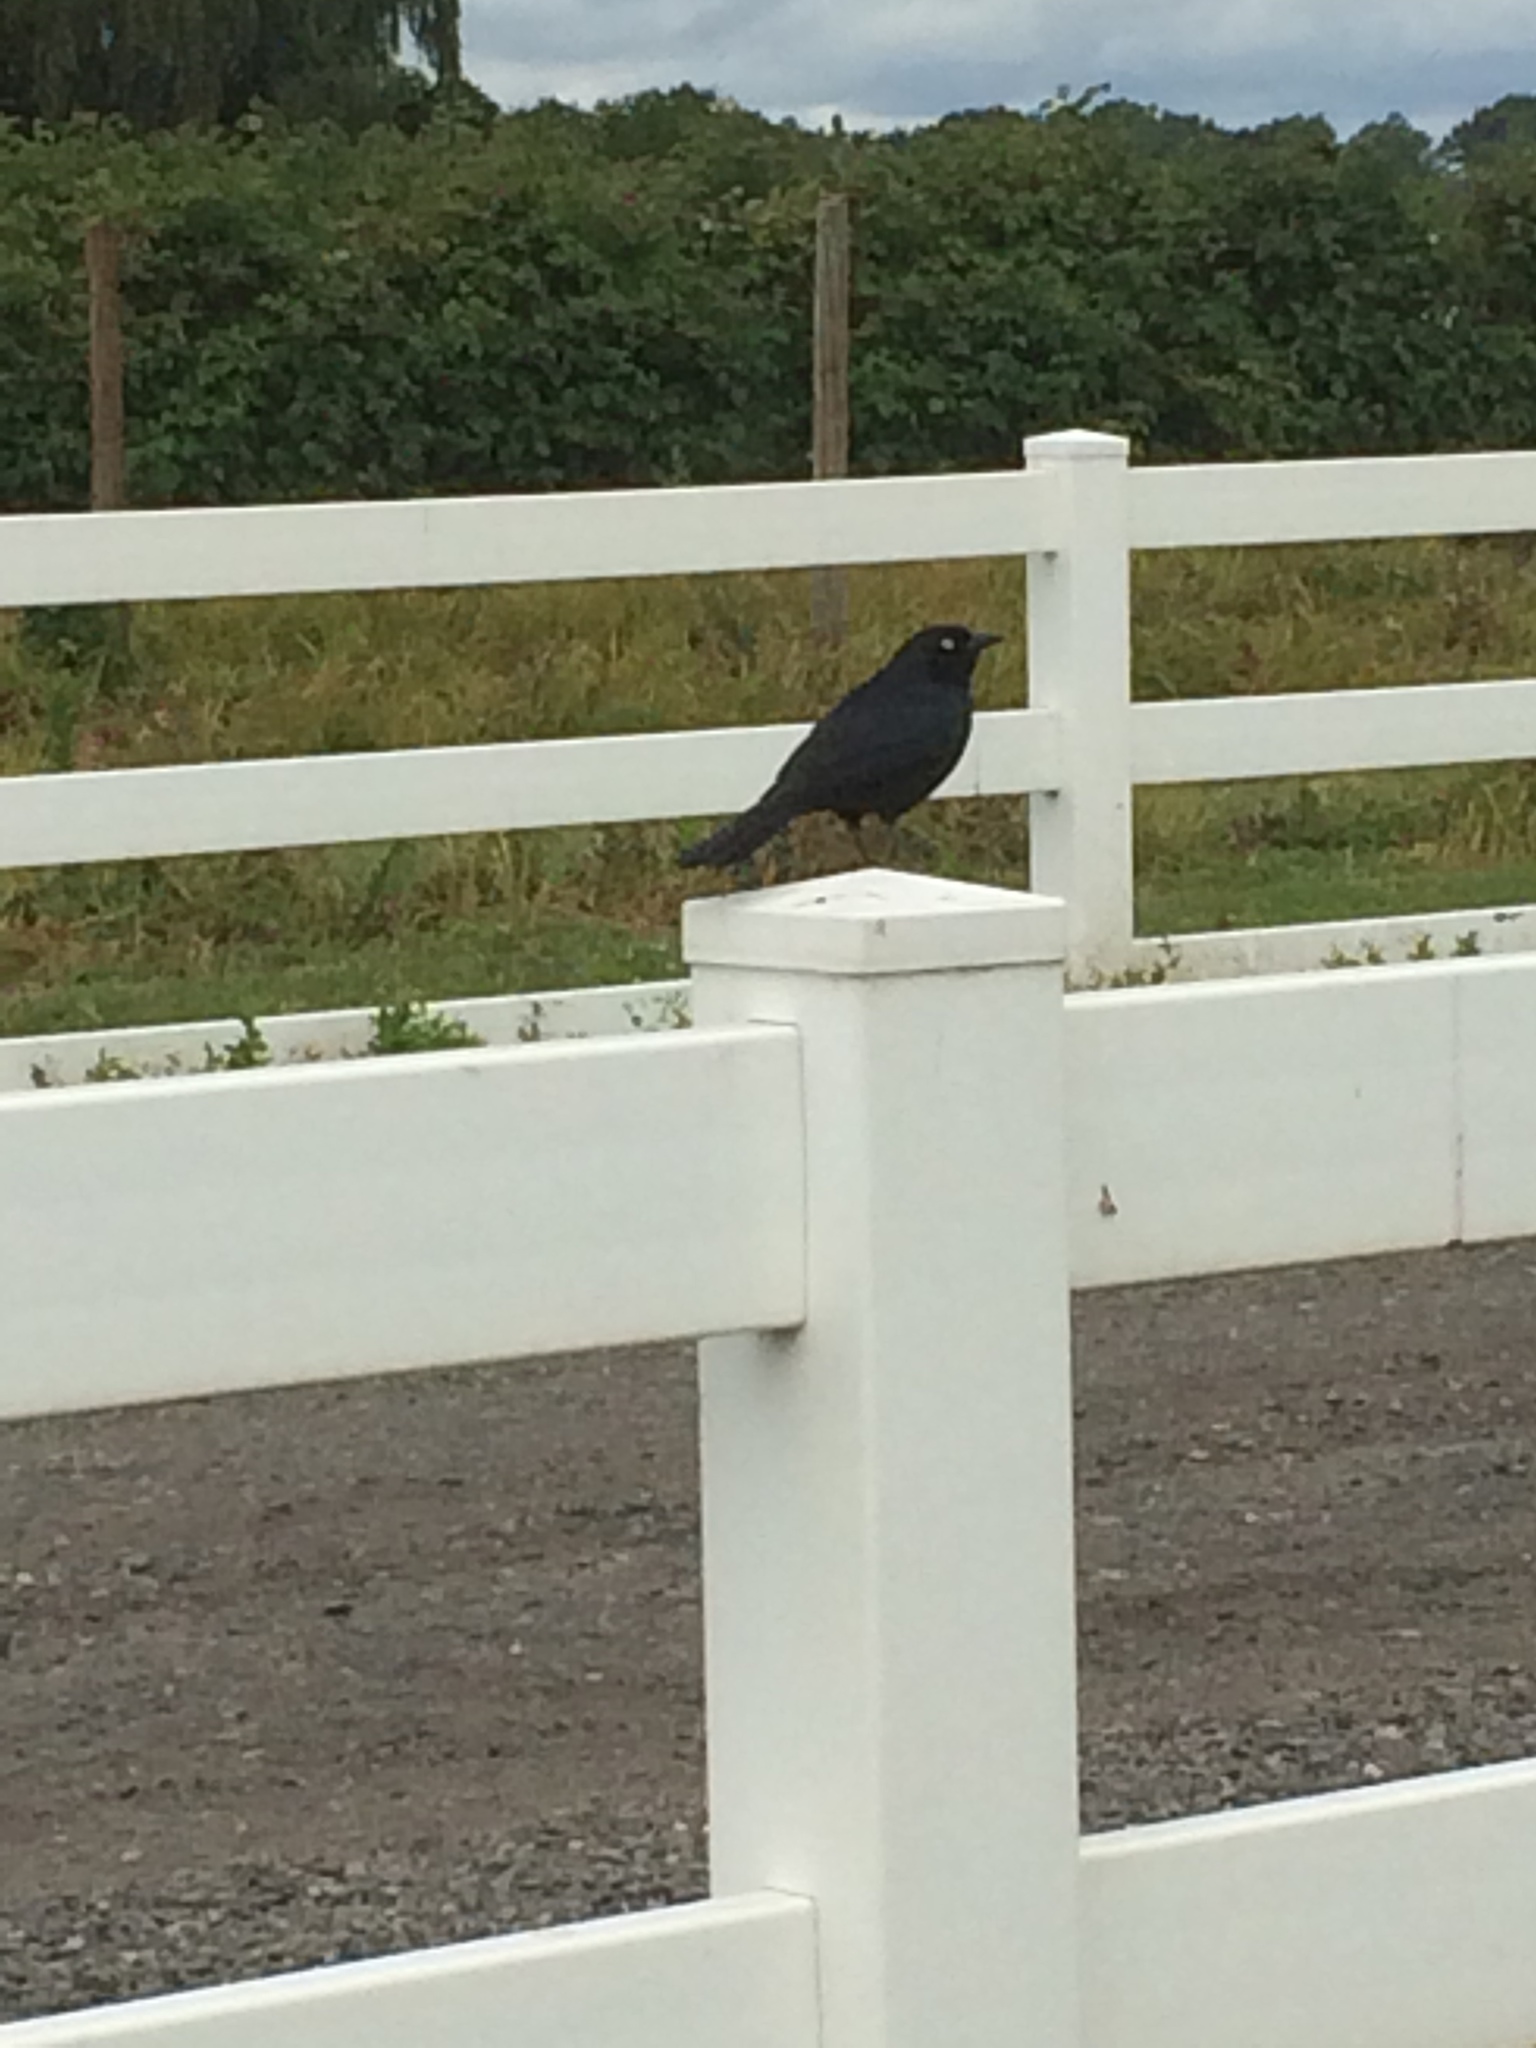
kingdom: Animalia
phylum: Chordata
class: Aves
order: Passeriformes
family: Icteridae
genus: Euphagus
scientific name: Euphagus cyanocephalus
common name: Brewer's blackbird
